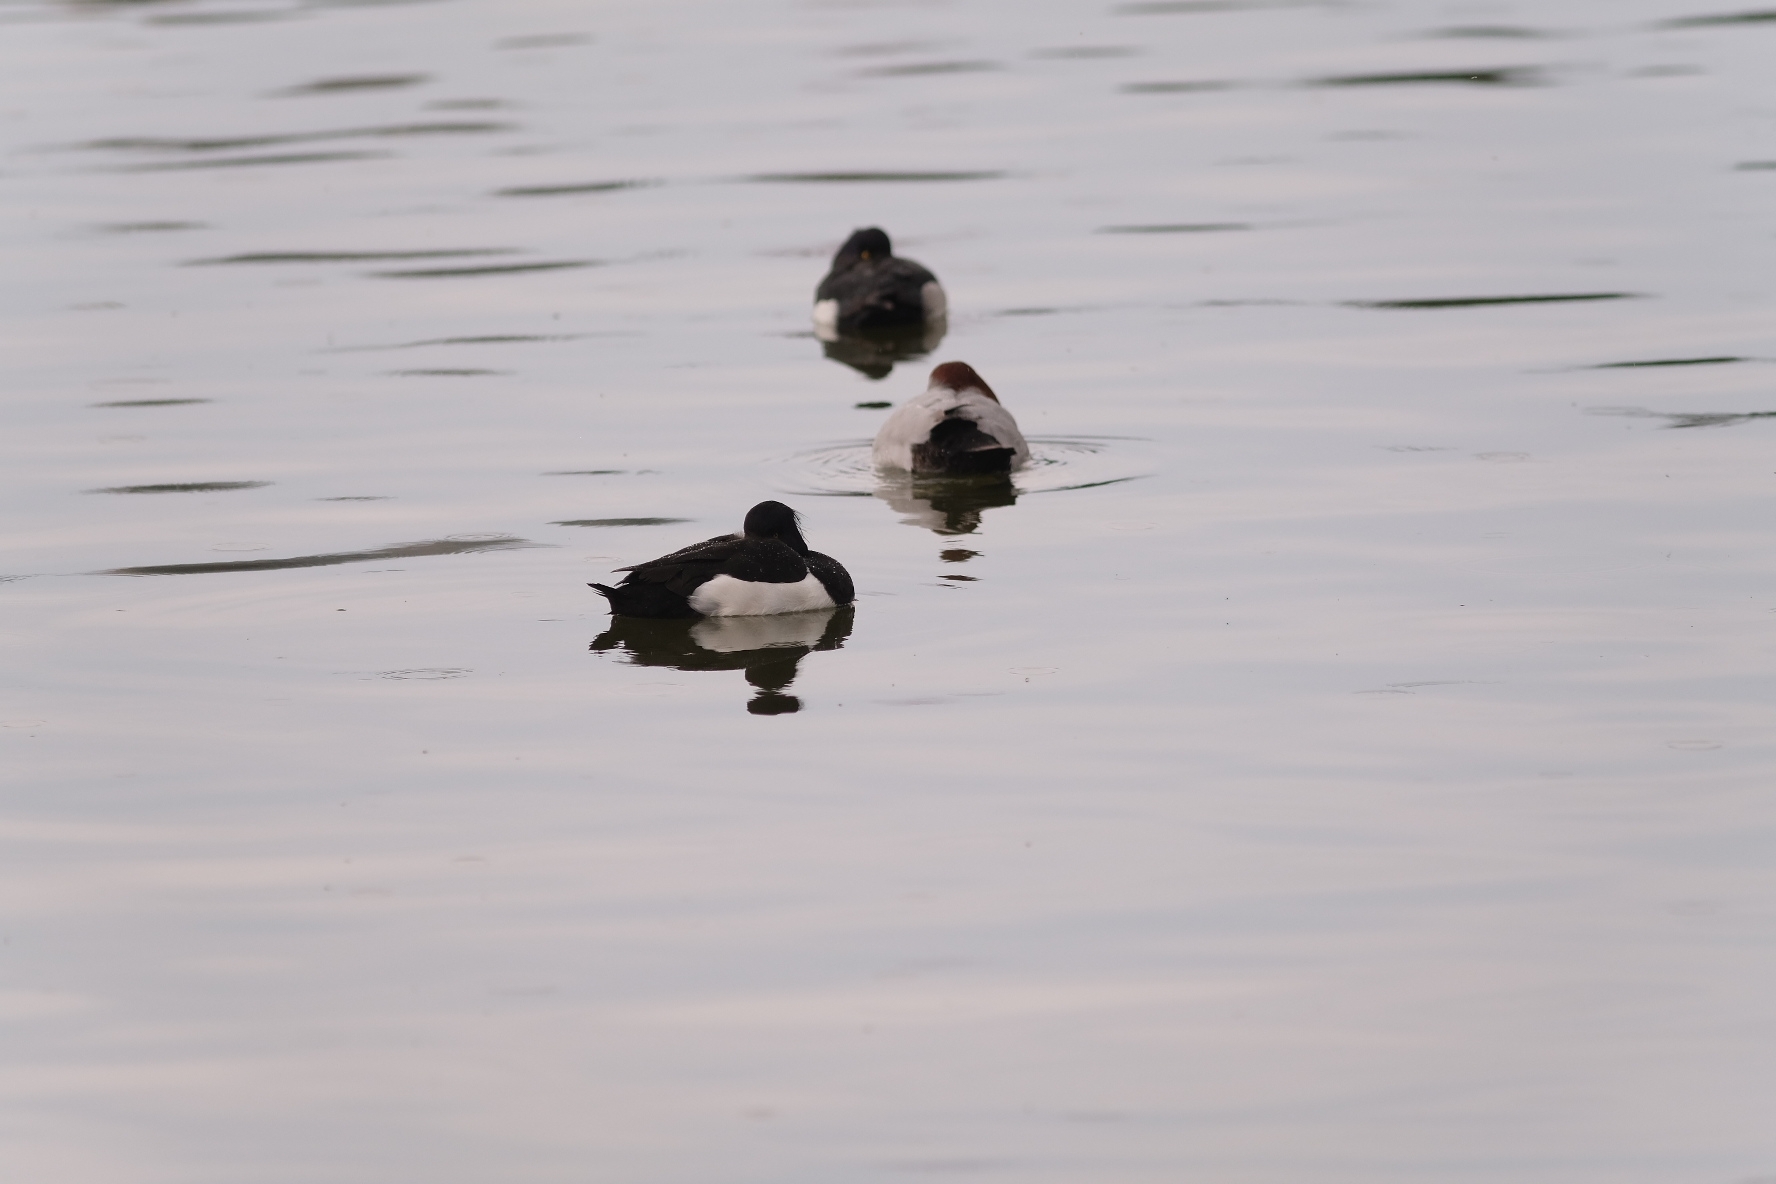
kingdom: Animalia
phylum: Chordata
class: Aves
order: Anseriformes
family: Anatidae
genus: Aythya
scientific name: Aythya fuligula
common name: Tufted duck
